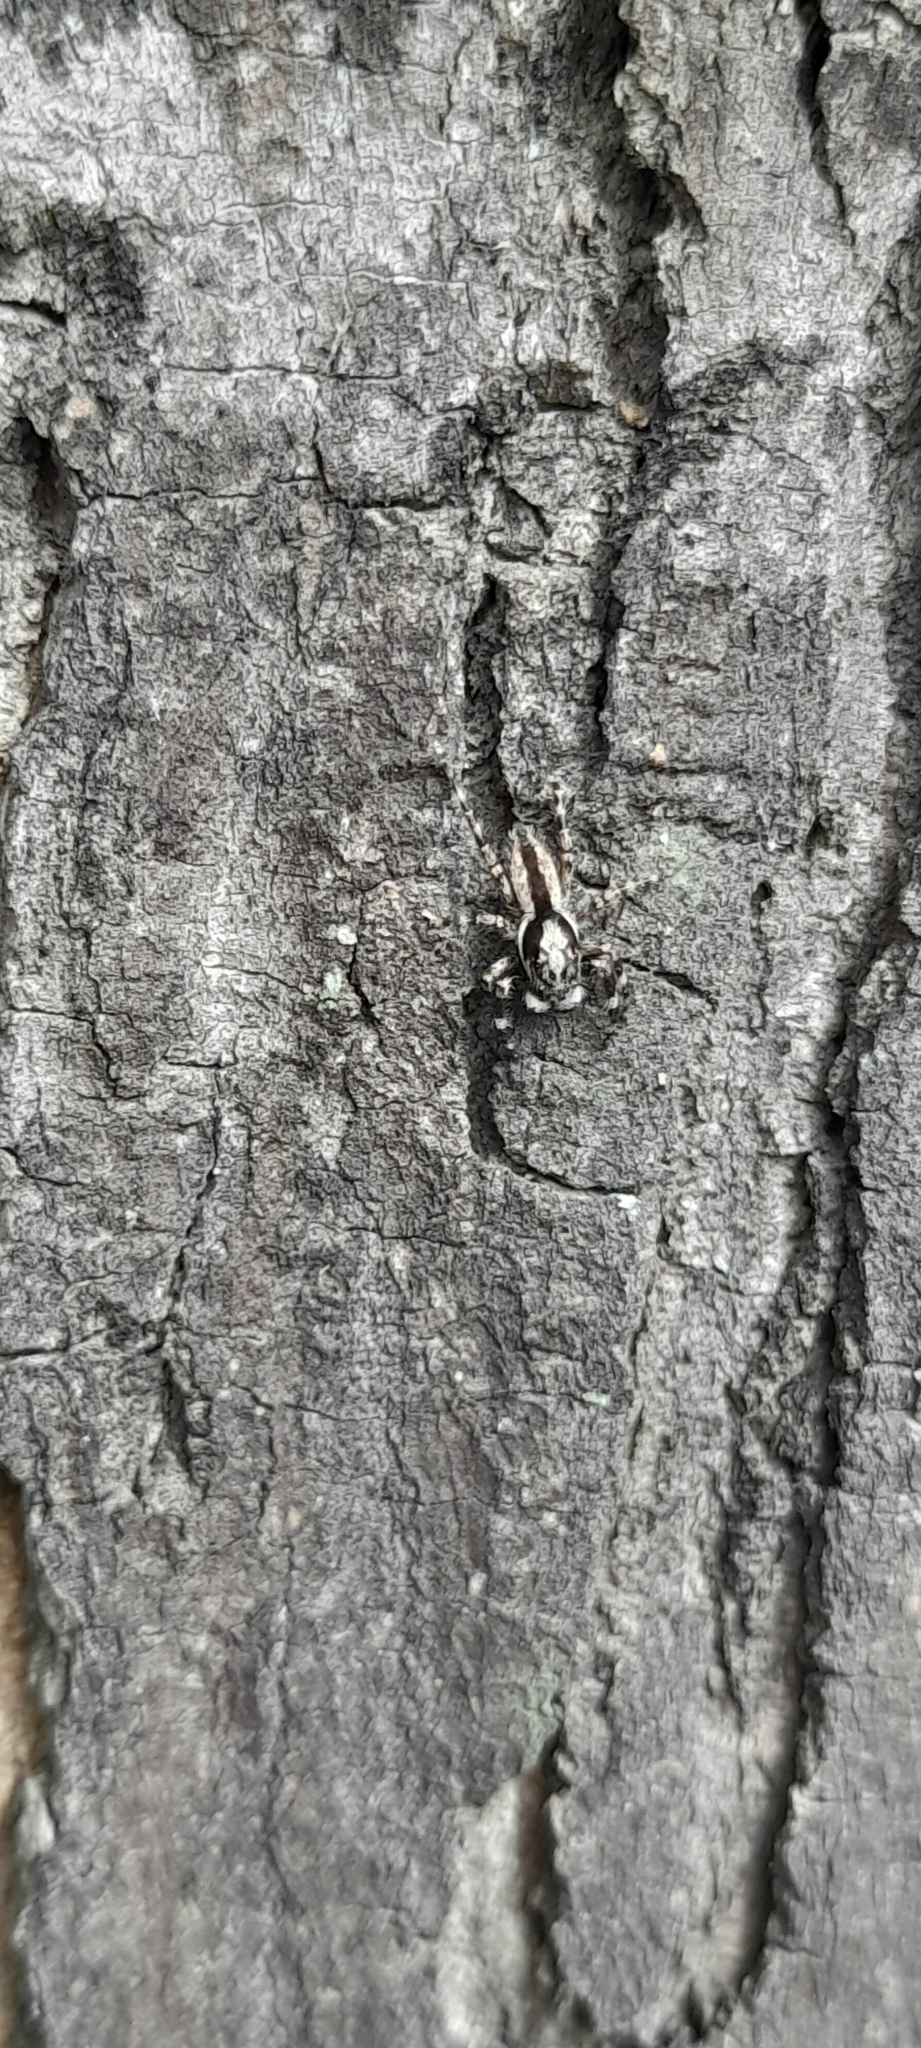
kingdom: Animalia
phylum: Arthropoda
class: Arachnida
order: Araneae
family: Salticidae
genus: Menemerus
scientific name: Menemerus bivittatus
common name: Gray wall jumper
